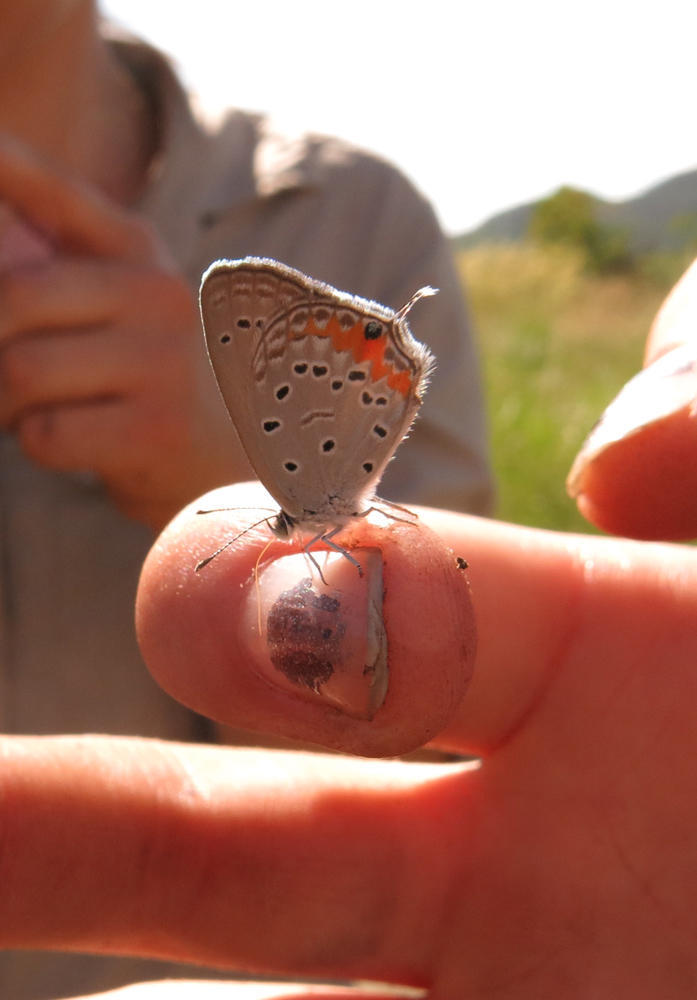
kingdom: Animalia
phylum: Arthropoda
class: Insecta
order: Lepidoptera
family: Lycaenidae
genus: Cupidopsis
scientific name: Cupidopsis jobates
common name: Tailed meadow blue
